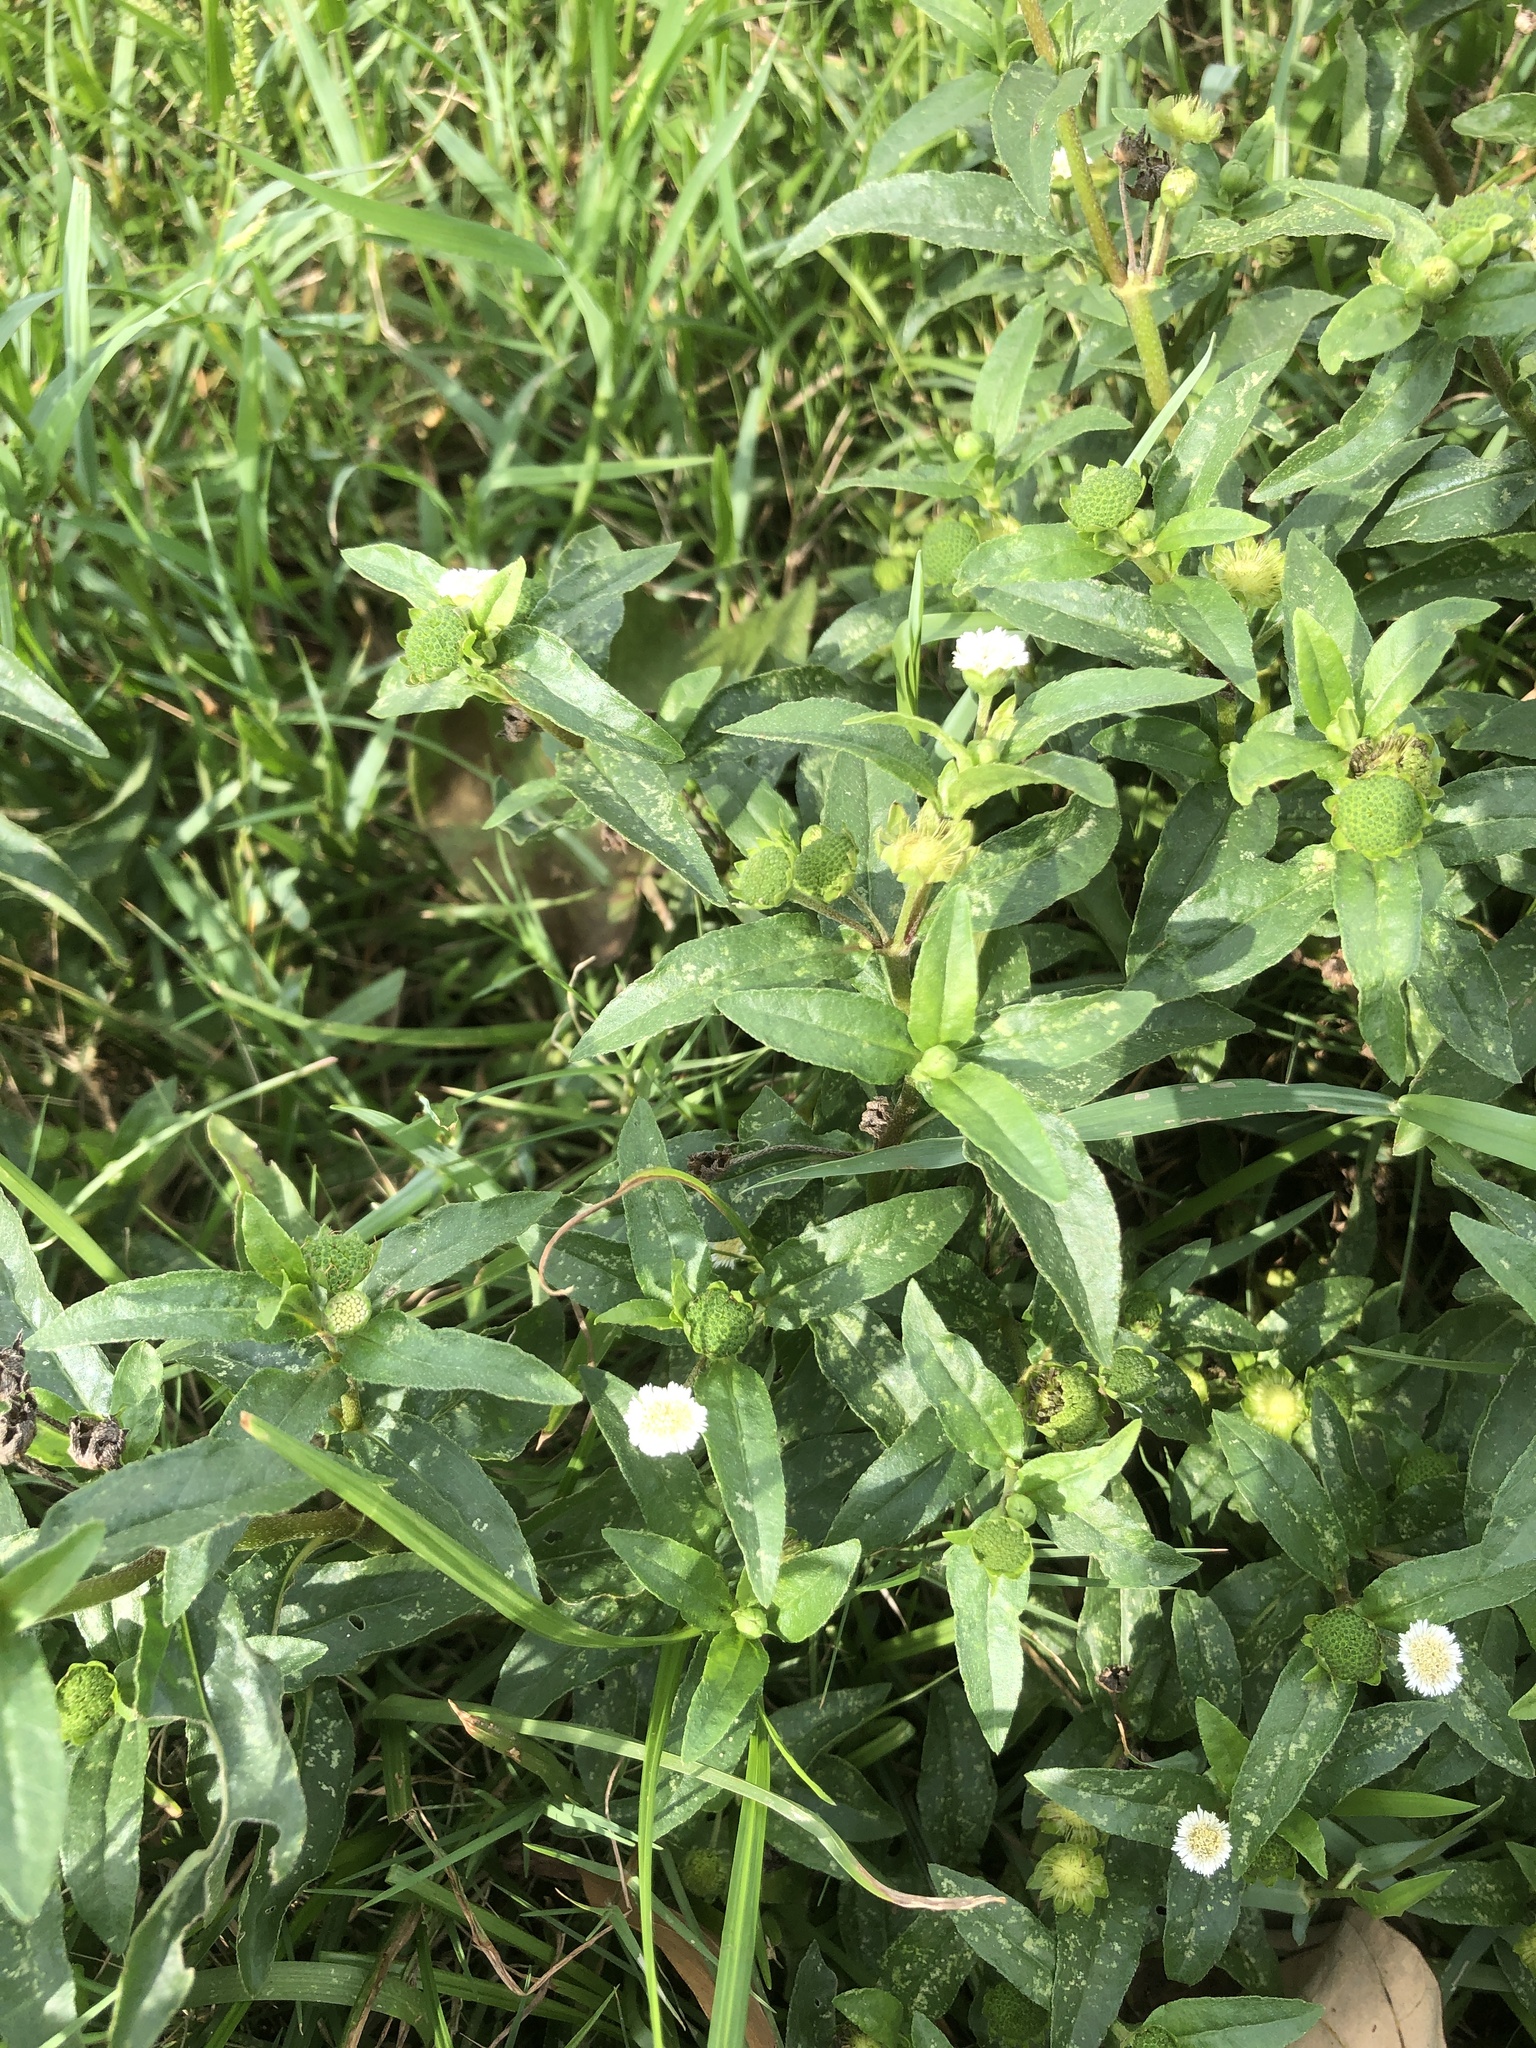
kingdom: Plantae
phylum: Tracheophyta
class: Magnoliopsida
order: Asterales
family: Asteraceae
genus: Eclipta
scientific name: Eclipta prostrata
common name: False daisy
